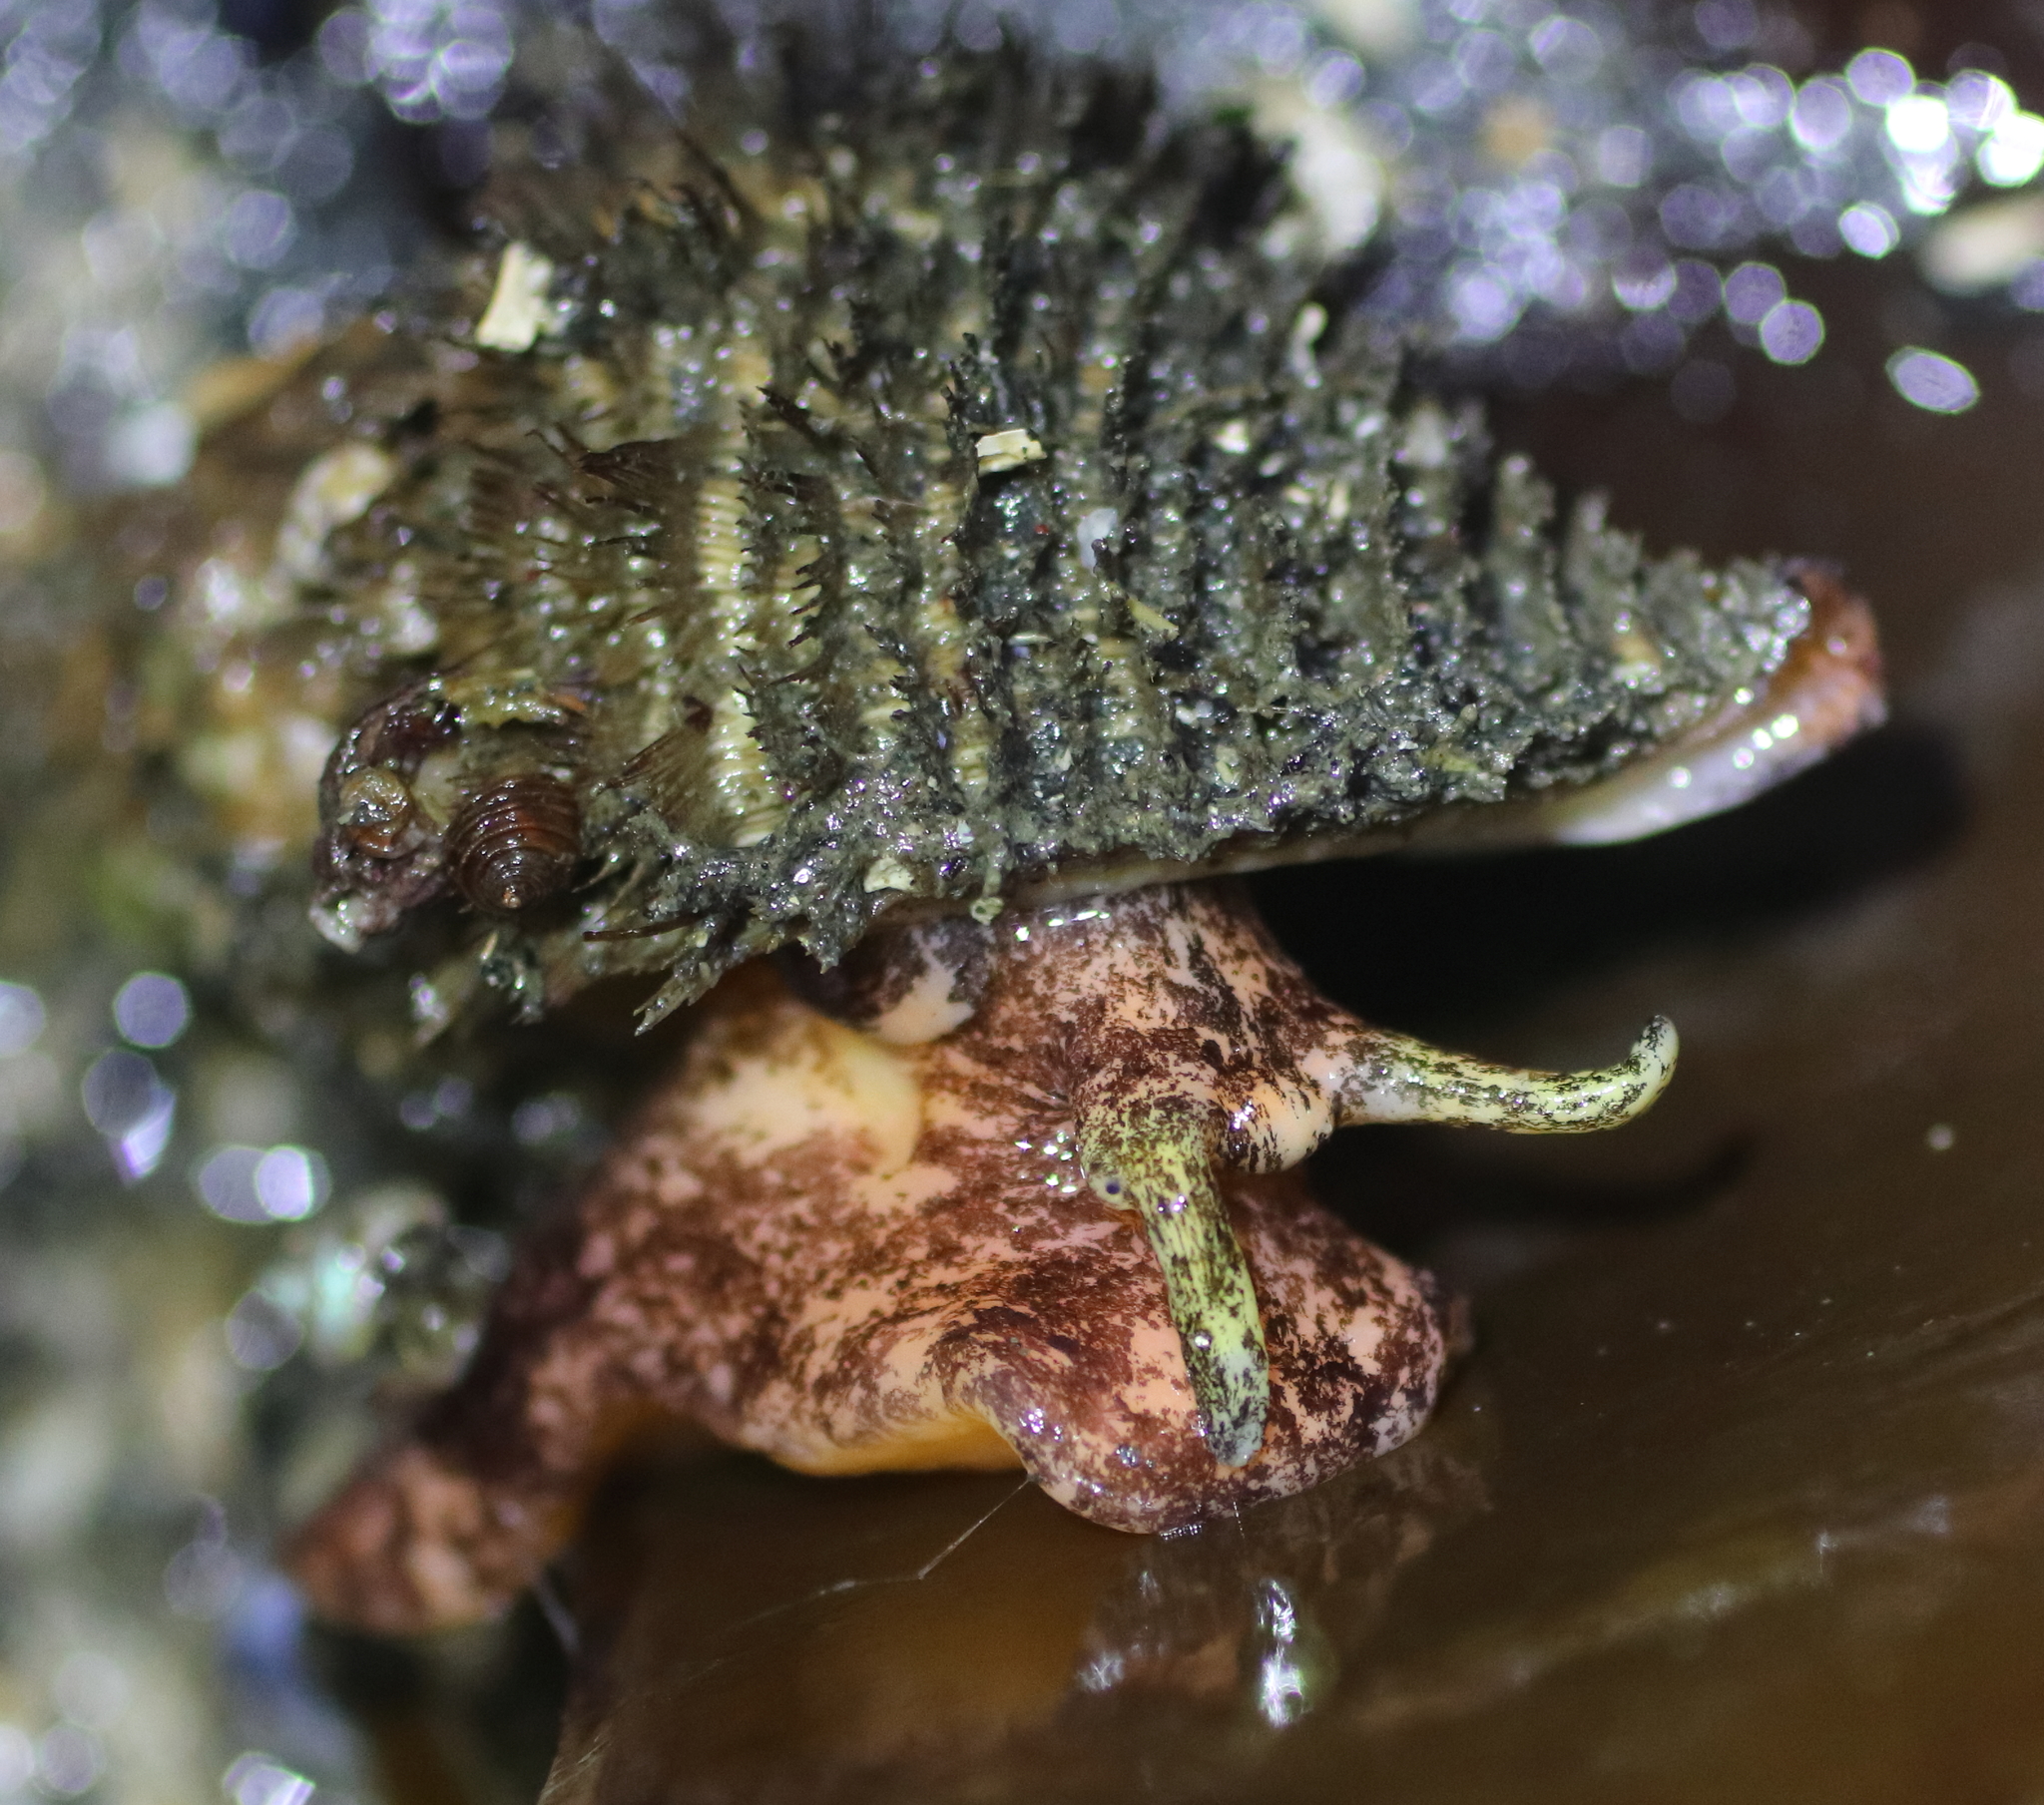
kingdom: Animalia
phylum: Mollusca
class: Gastropoda
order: Littorinimorpha
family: Cymatiidae
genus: Fusitriton
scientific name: Fusitriton oregonensis
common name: Oregon hairy triton
